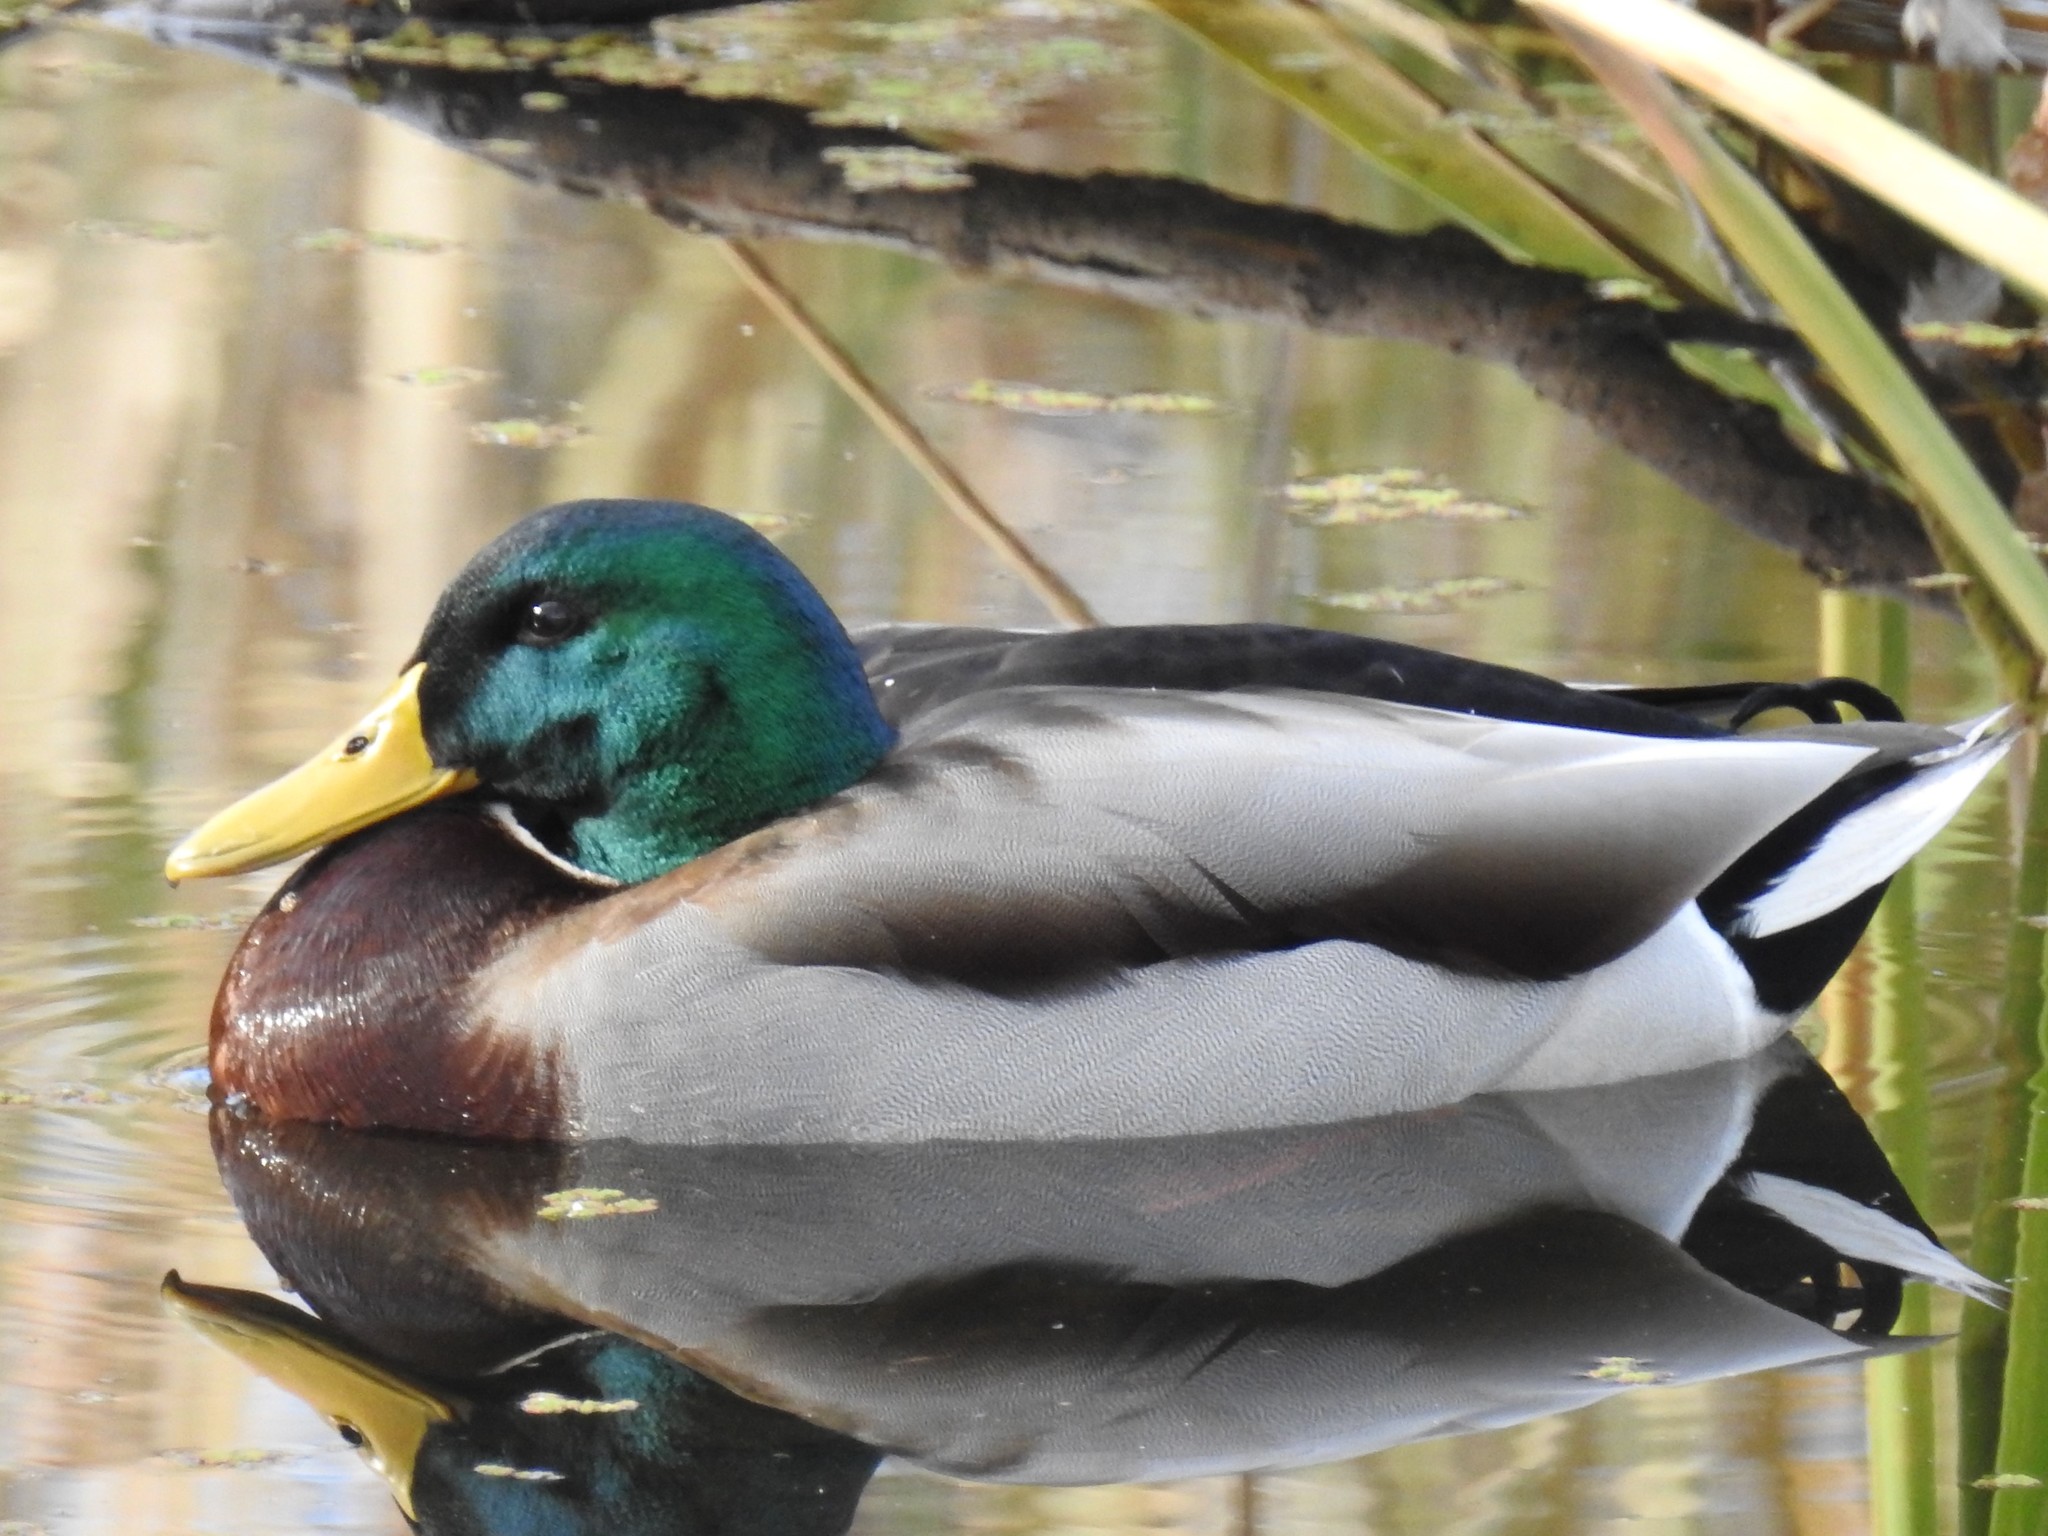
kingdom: Animalia
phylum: Chordata
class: Aves
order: Anseriformes
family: Anatidae
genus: Anas
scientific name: Anas platyrhynchos
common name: Mallard
